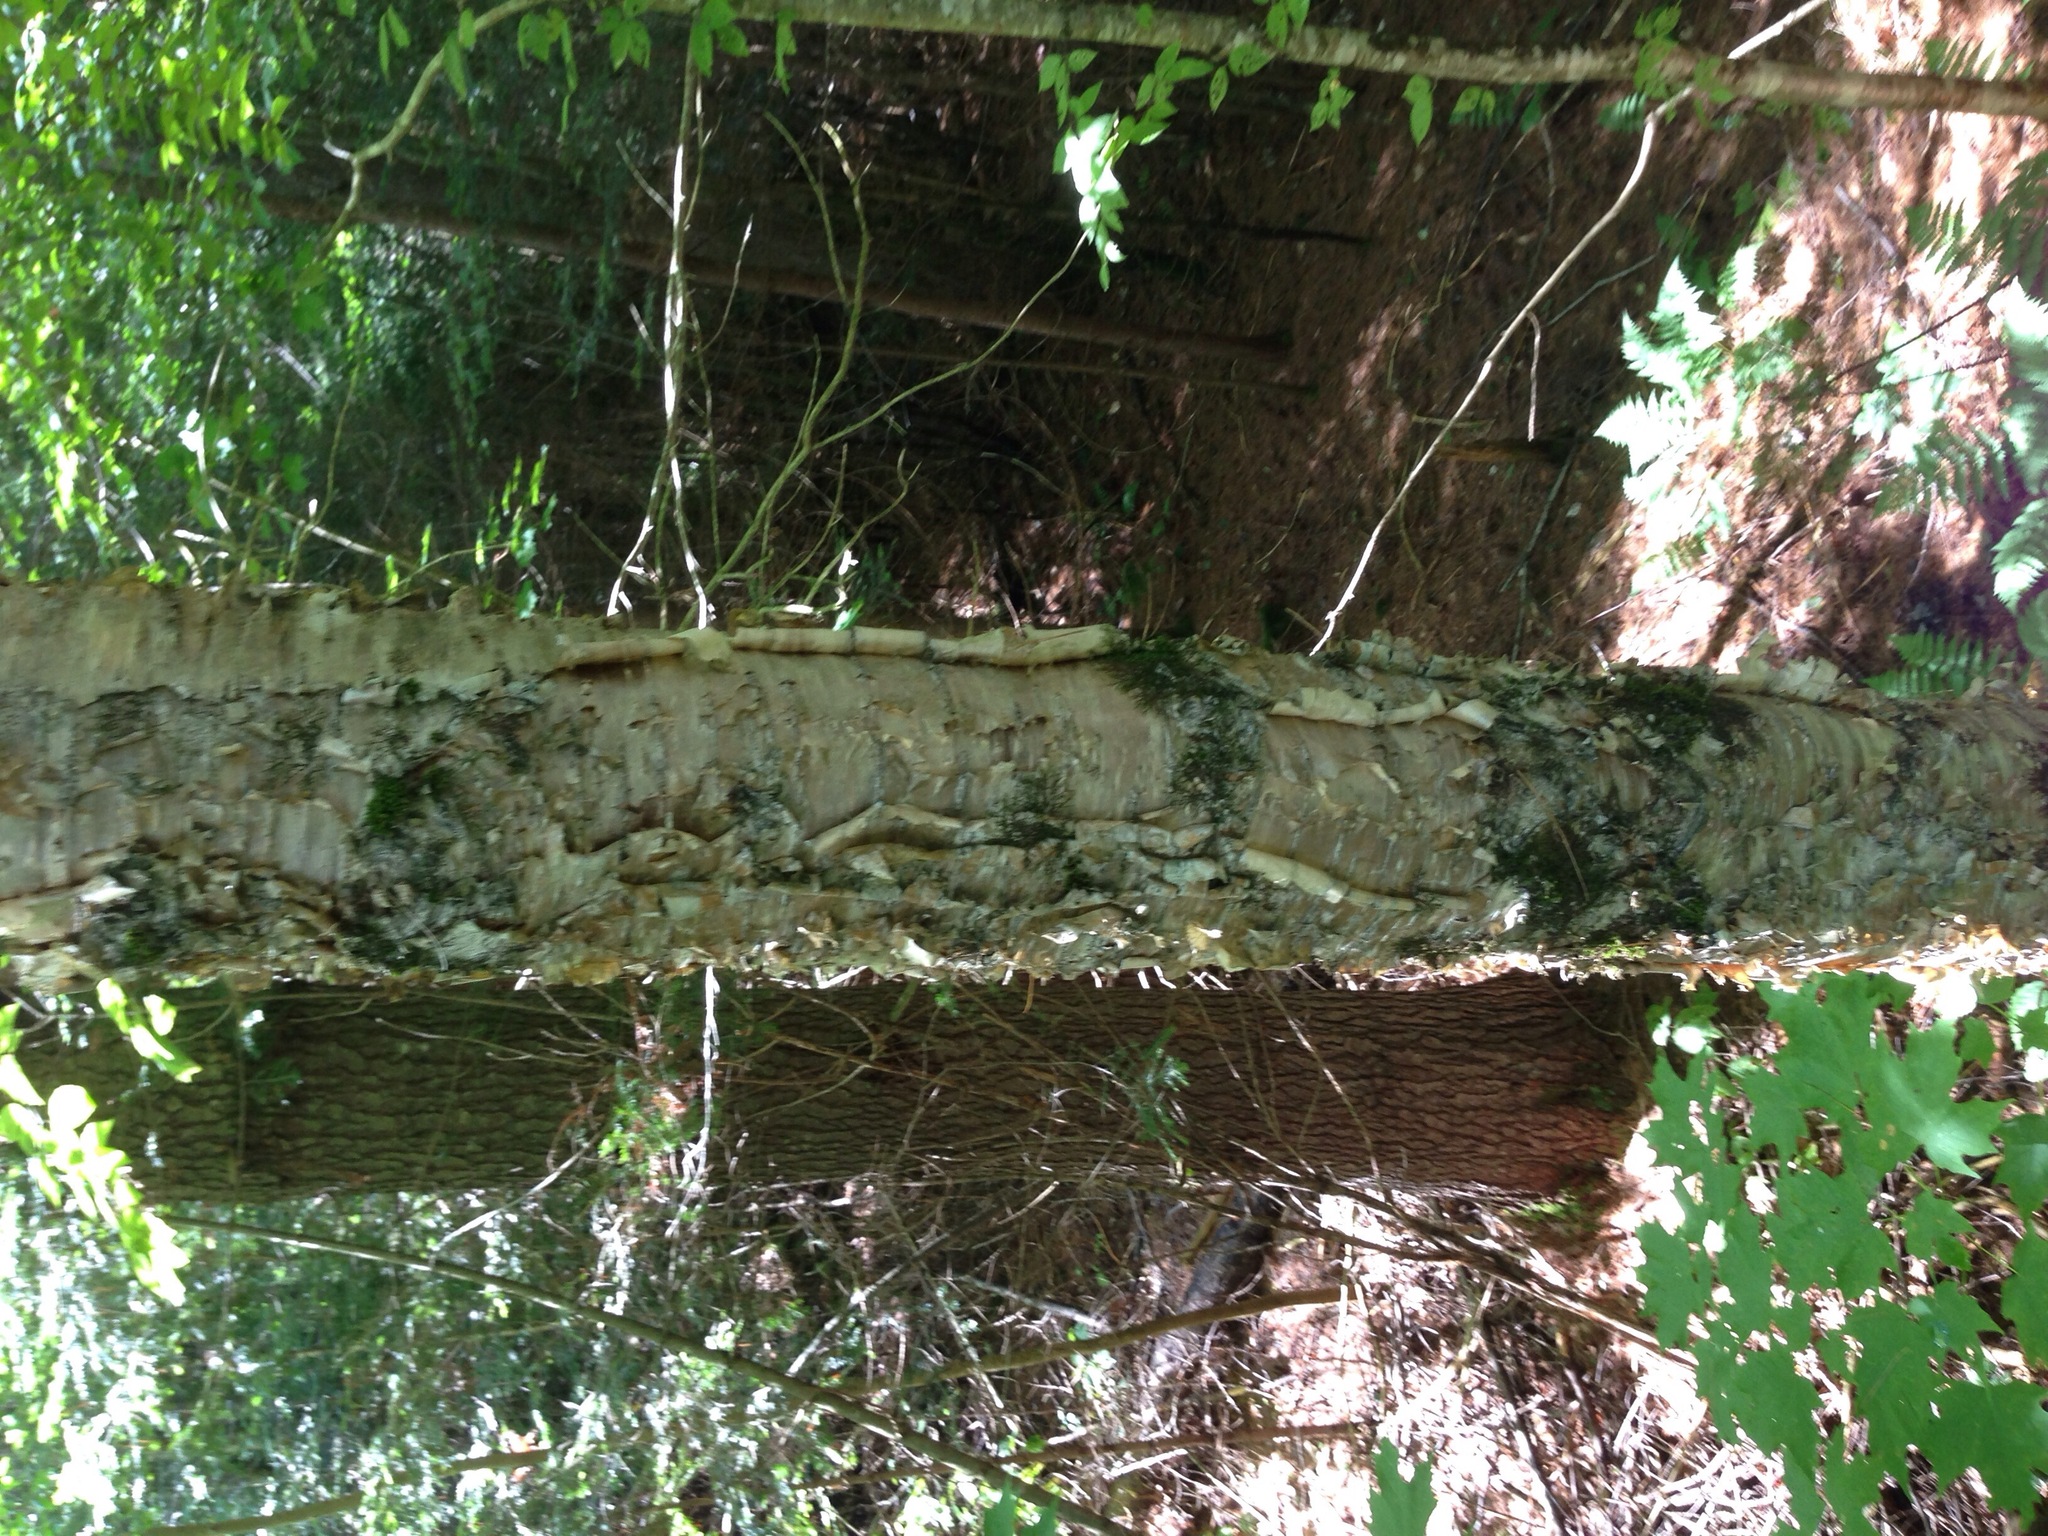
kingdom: Plantae
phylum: Tracheophyta
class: Magnoliopsida
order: Fagales
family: Betulaceae
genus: Betula
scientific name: Betula alleghaniensis
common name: Yellow birch
